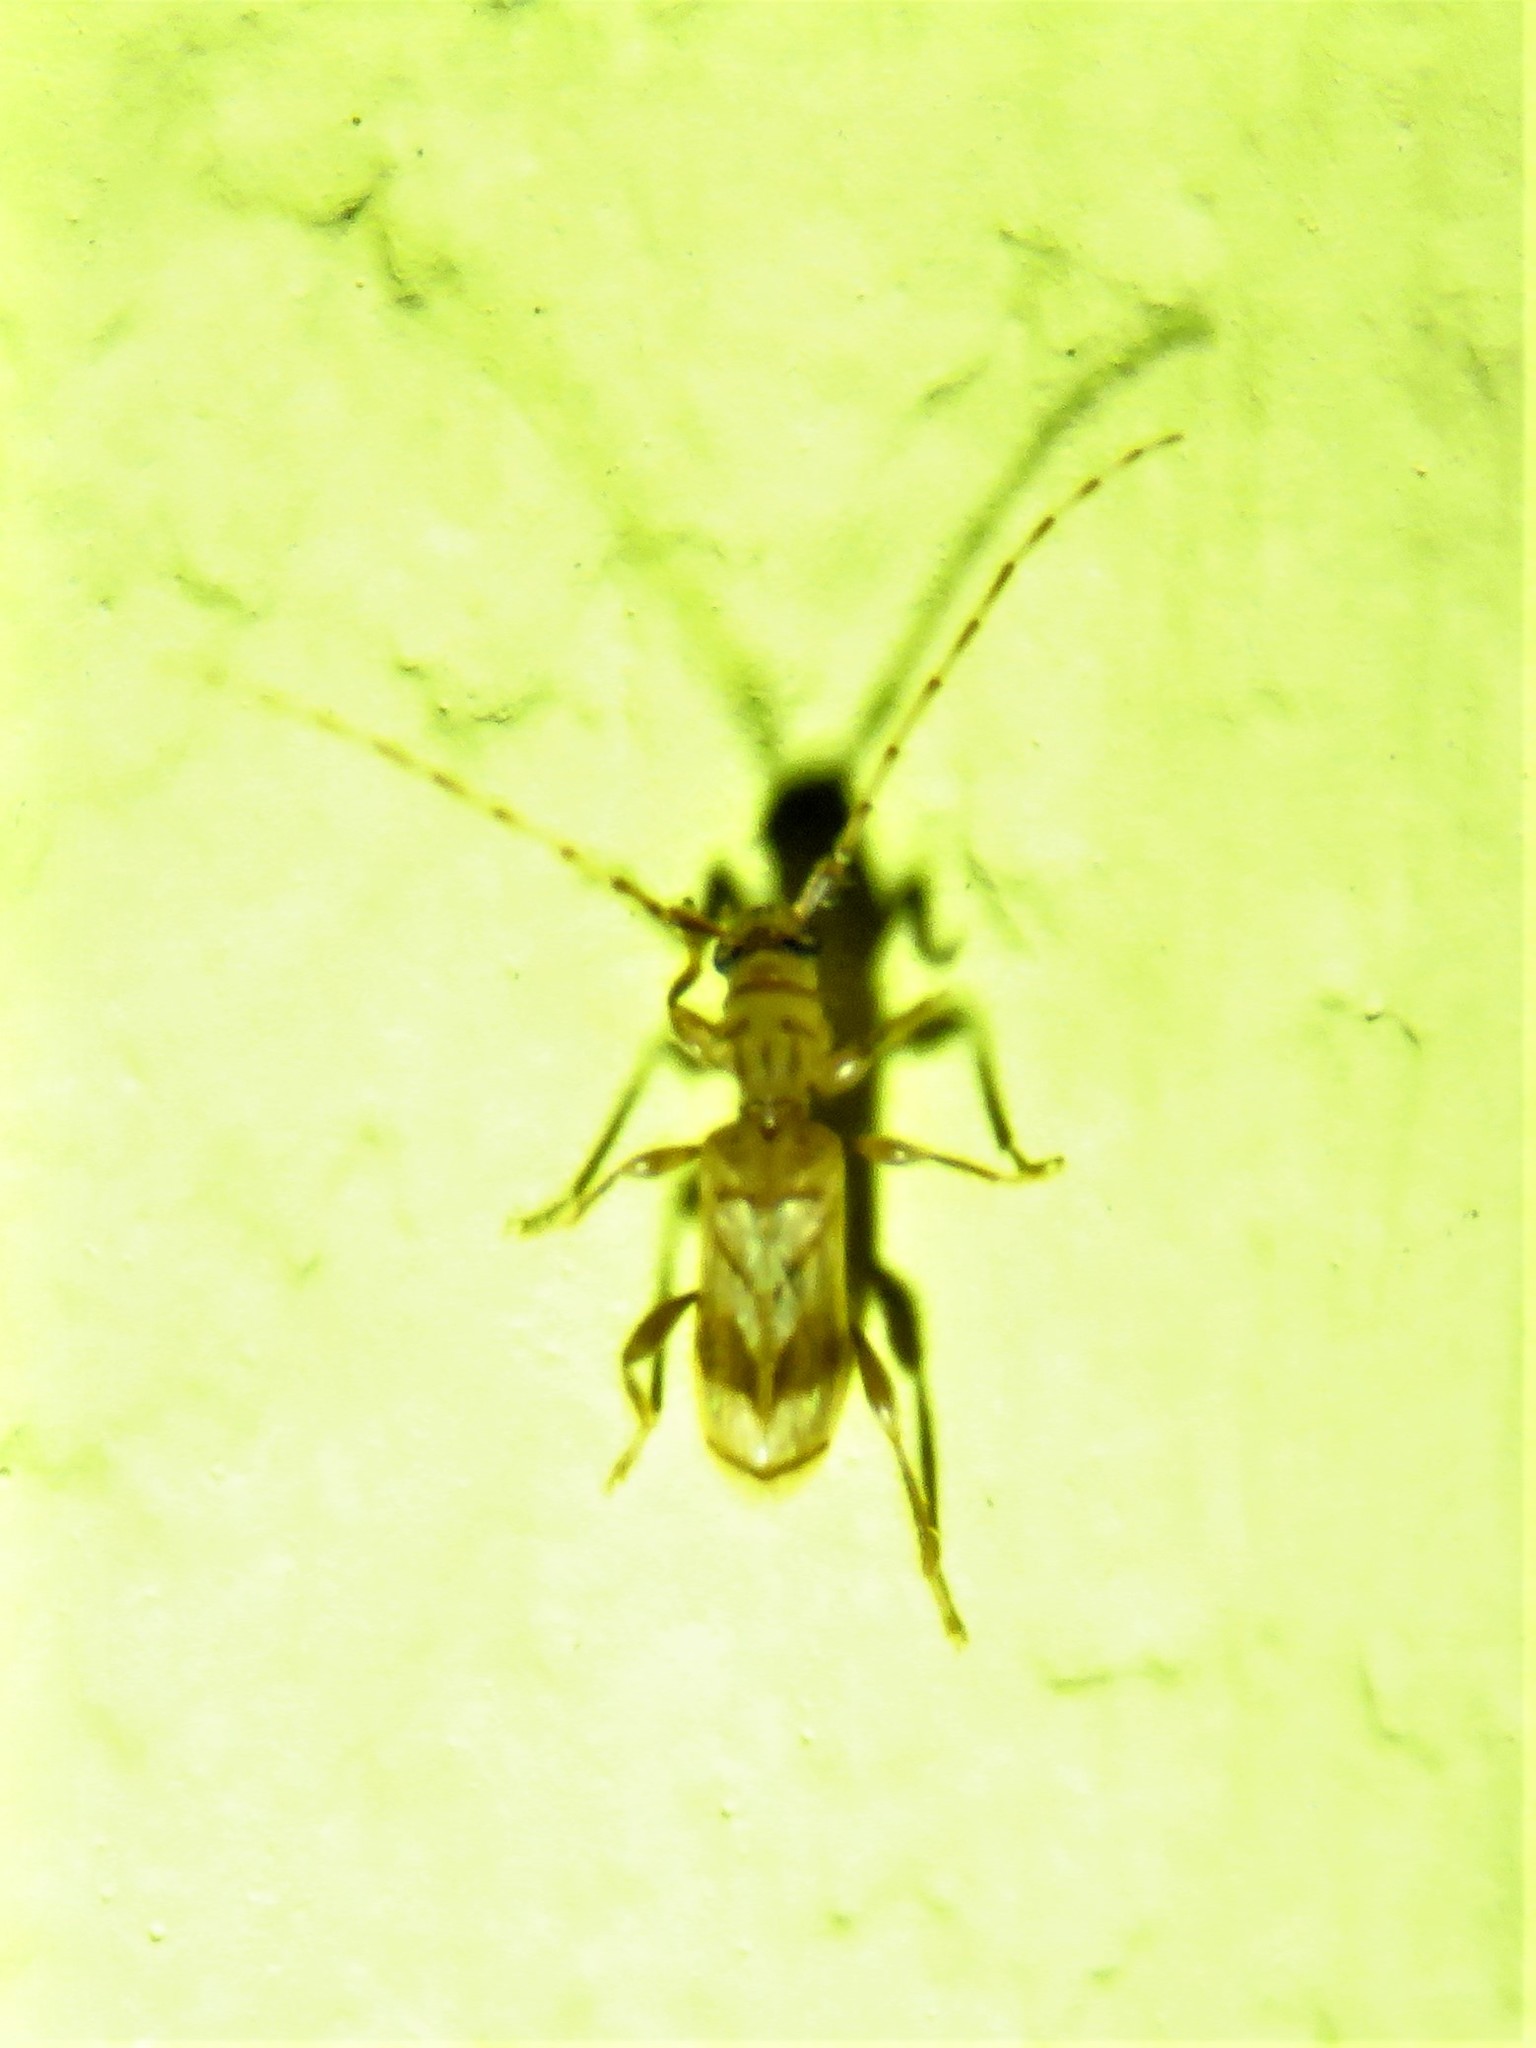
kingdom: Animalia
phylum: Arthropoda
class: Insecta
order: Coleoptera
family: Cerambycidae
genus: Obrium
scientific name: Obrium maculatum
